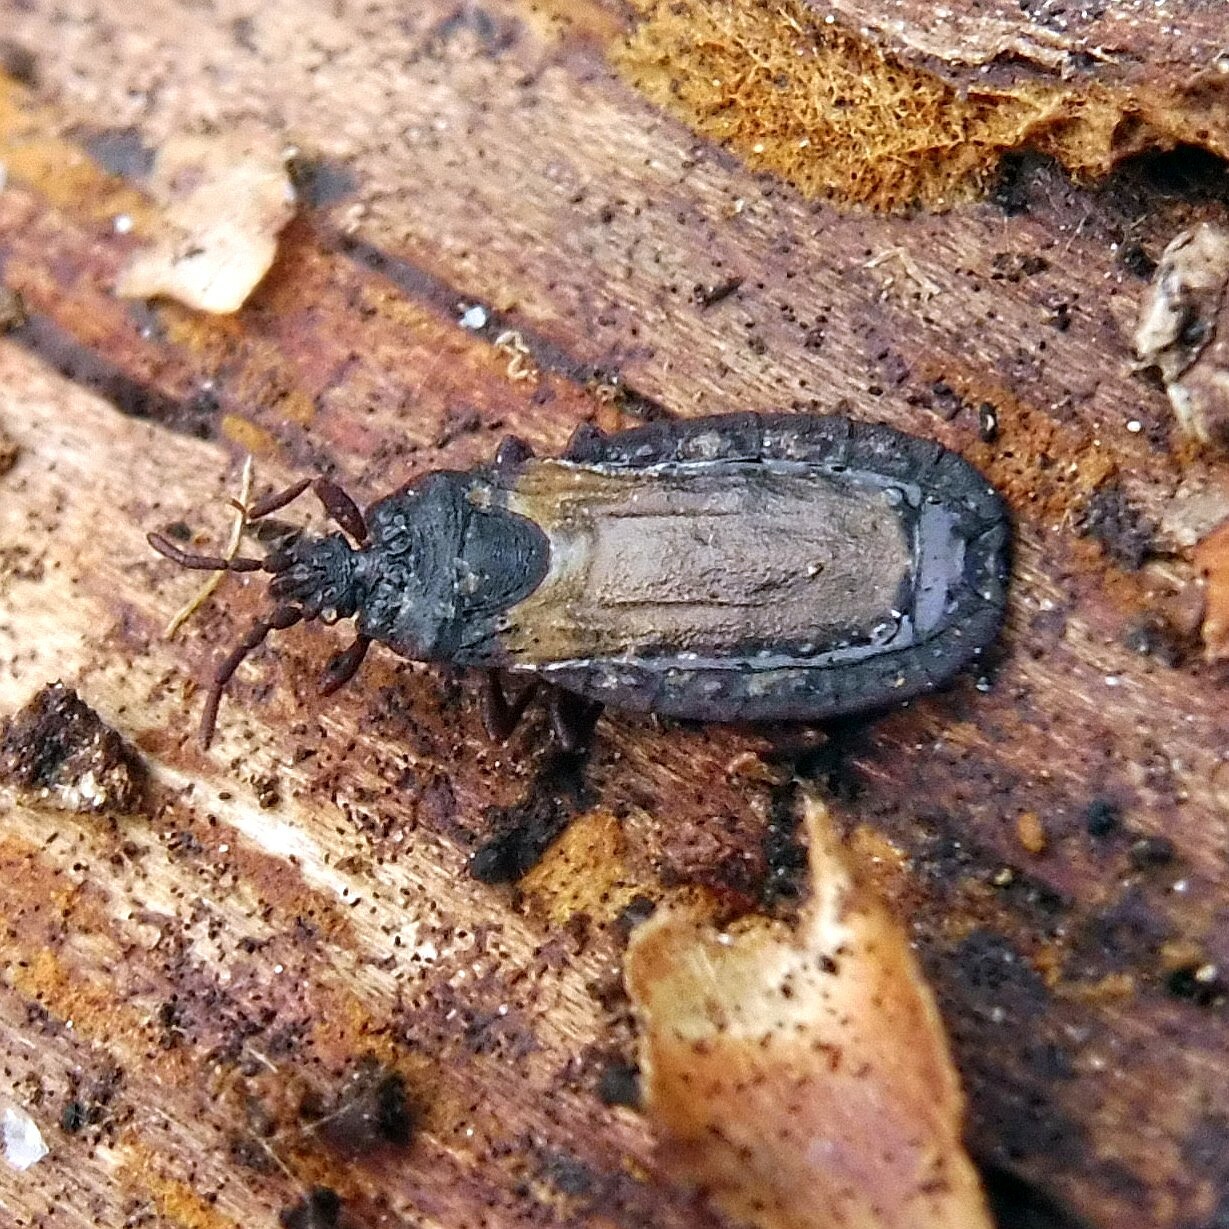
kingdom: Animalia
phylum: Arthropoda
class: Insecta
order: Hemiptera
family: Aradidae
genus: Aneurus
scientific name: Aneurus avenius
